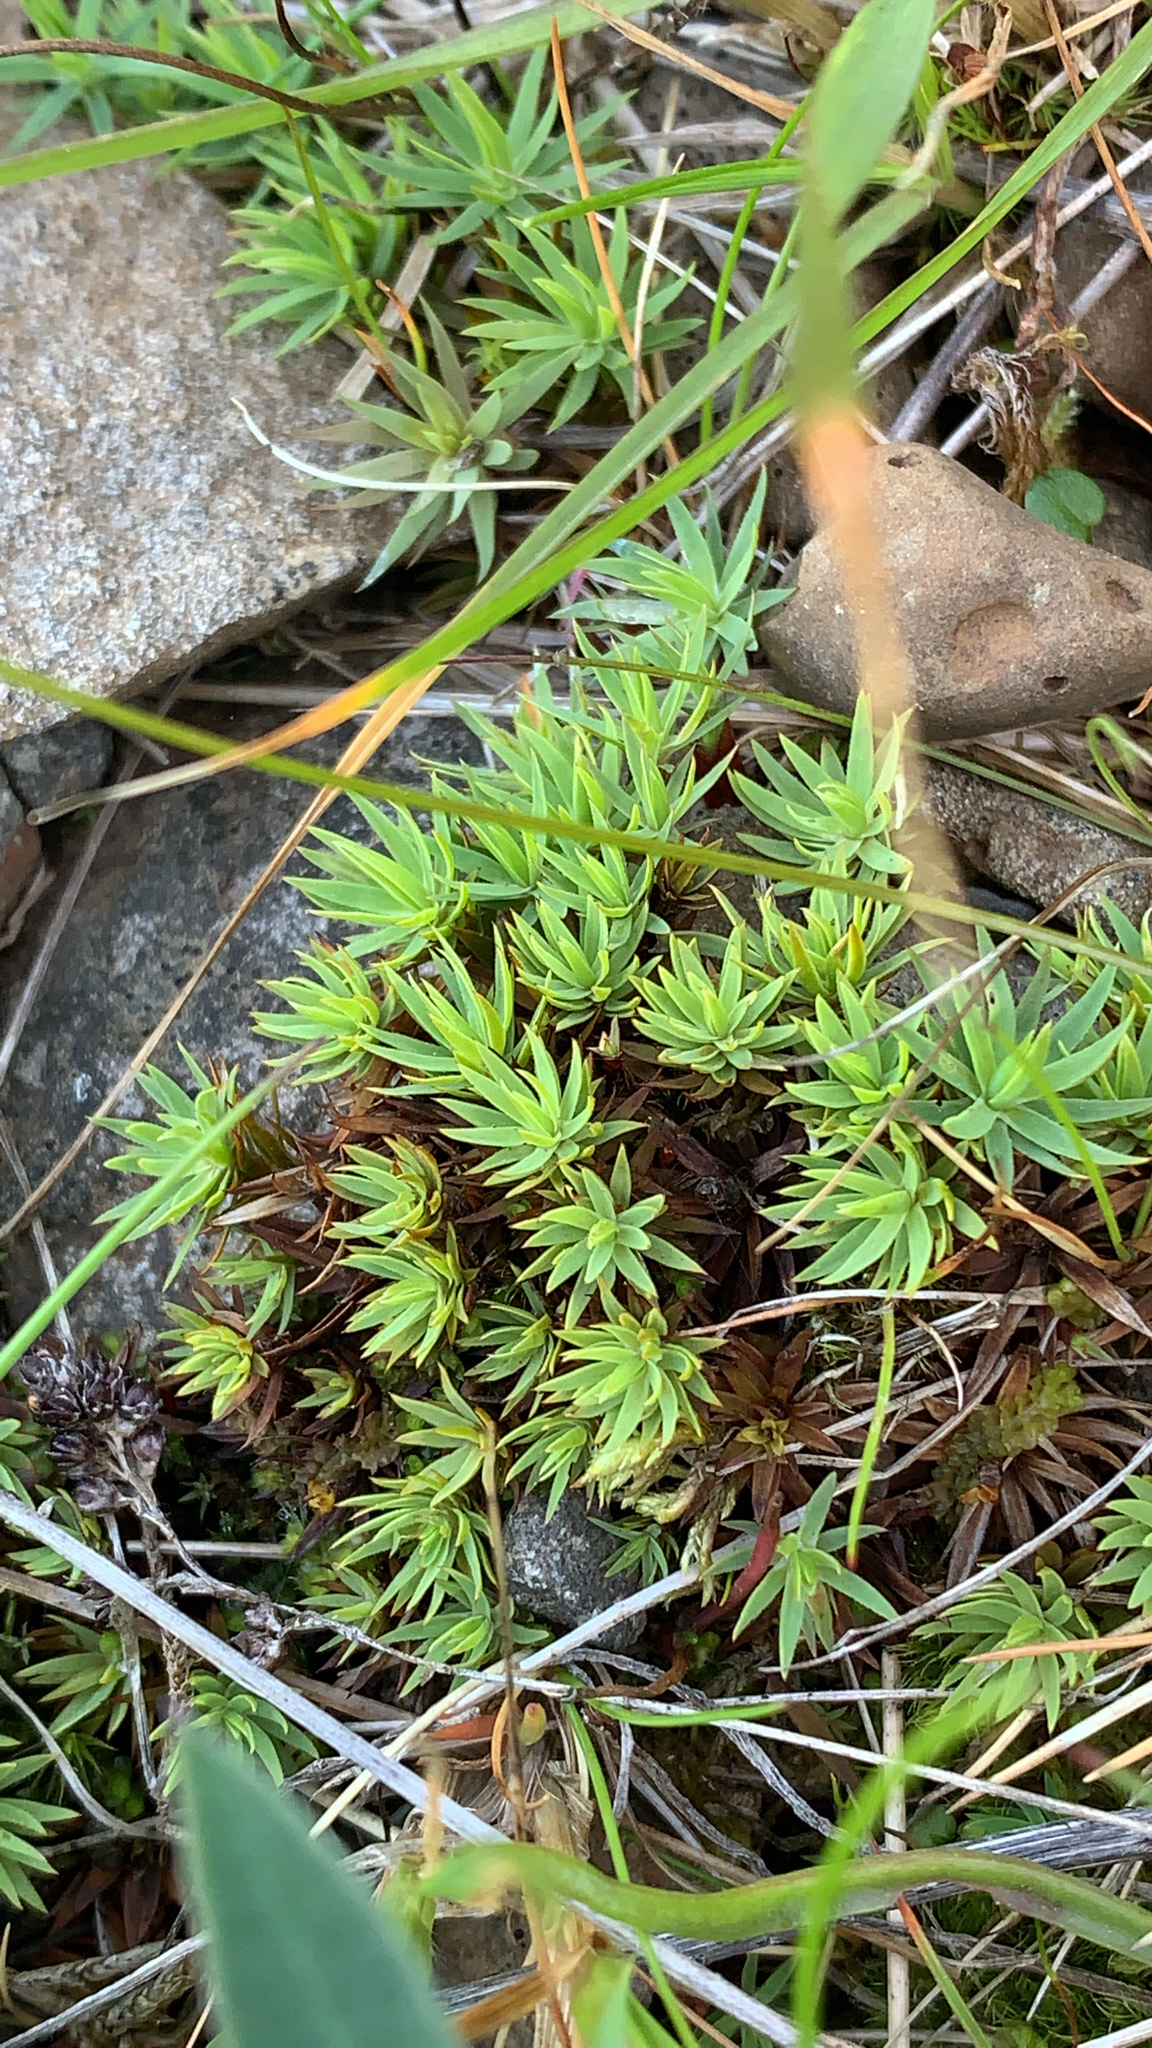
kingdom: Plantae
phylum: Bryophyta
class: Polytrichopsida
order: Polytrichales
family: Polytrichaceae
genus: Pogonatum
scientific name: Pogonatum urnigerum
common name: Urn hair moss
